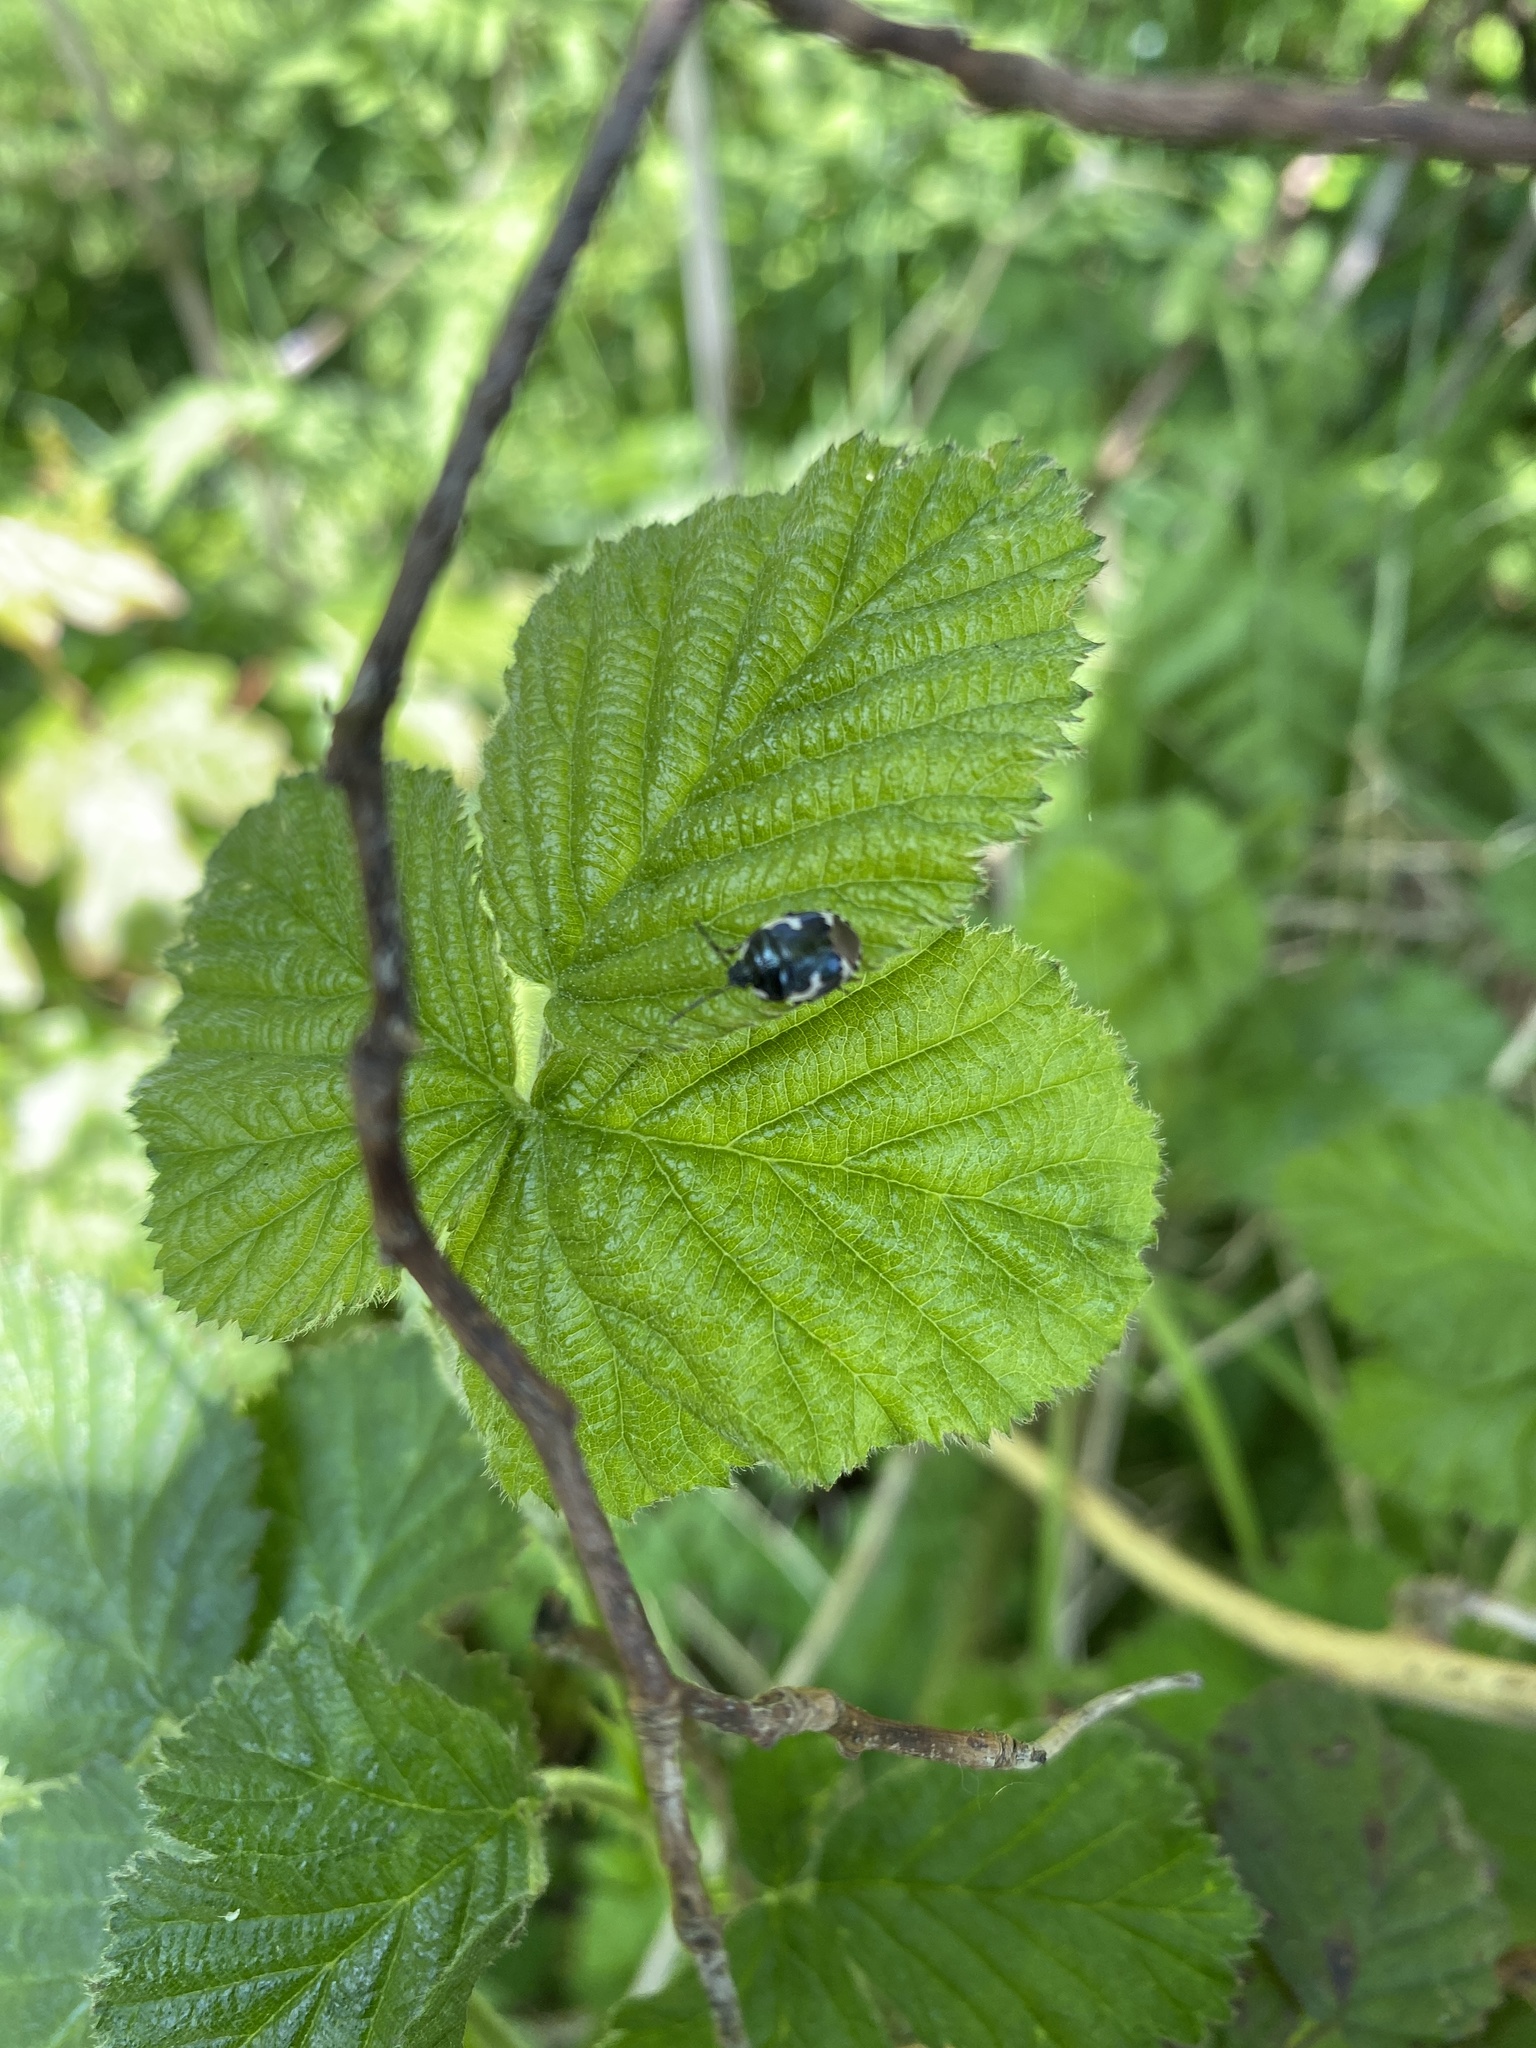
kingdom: Animalia
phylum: Arthropoda
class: Insecta
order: Hemiptera
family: Cydnidae
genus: Tritomegas
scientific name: Tritomegas bicolor
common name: Pied shieldbug
